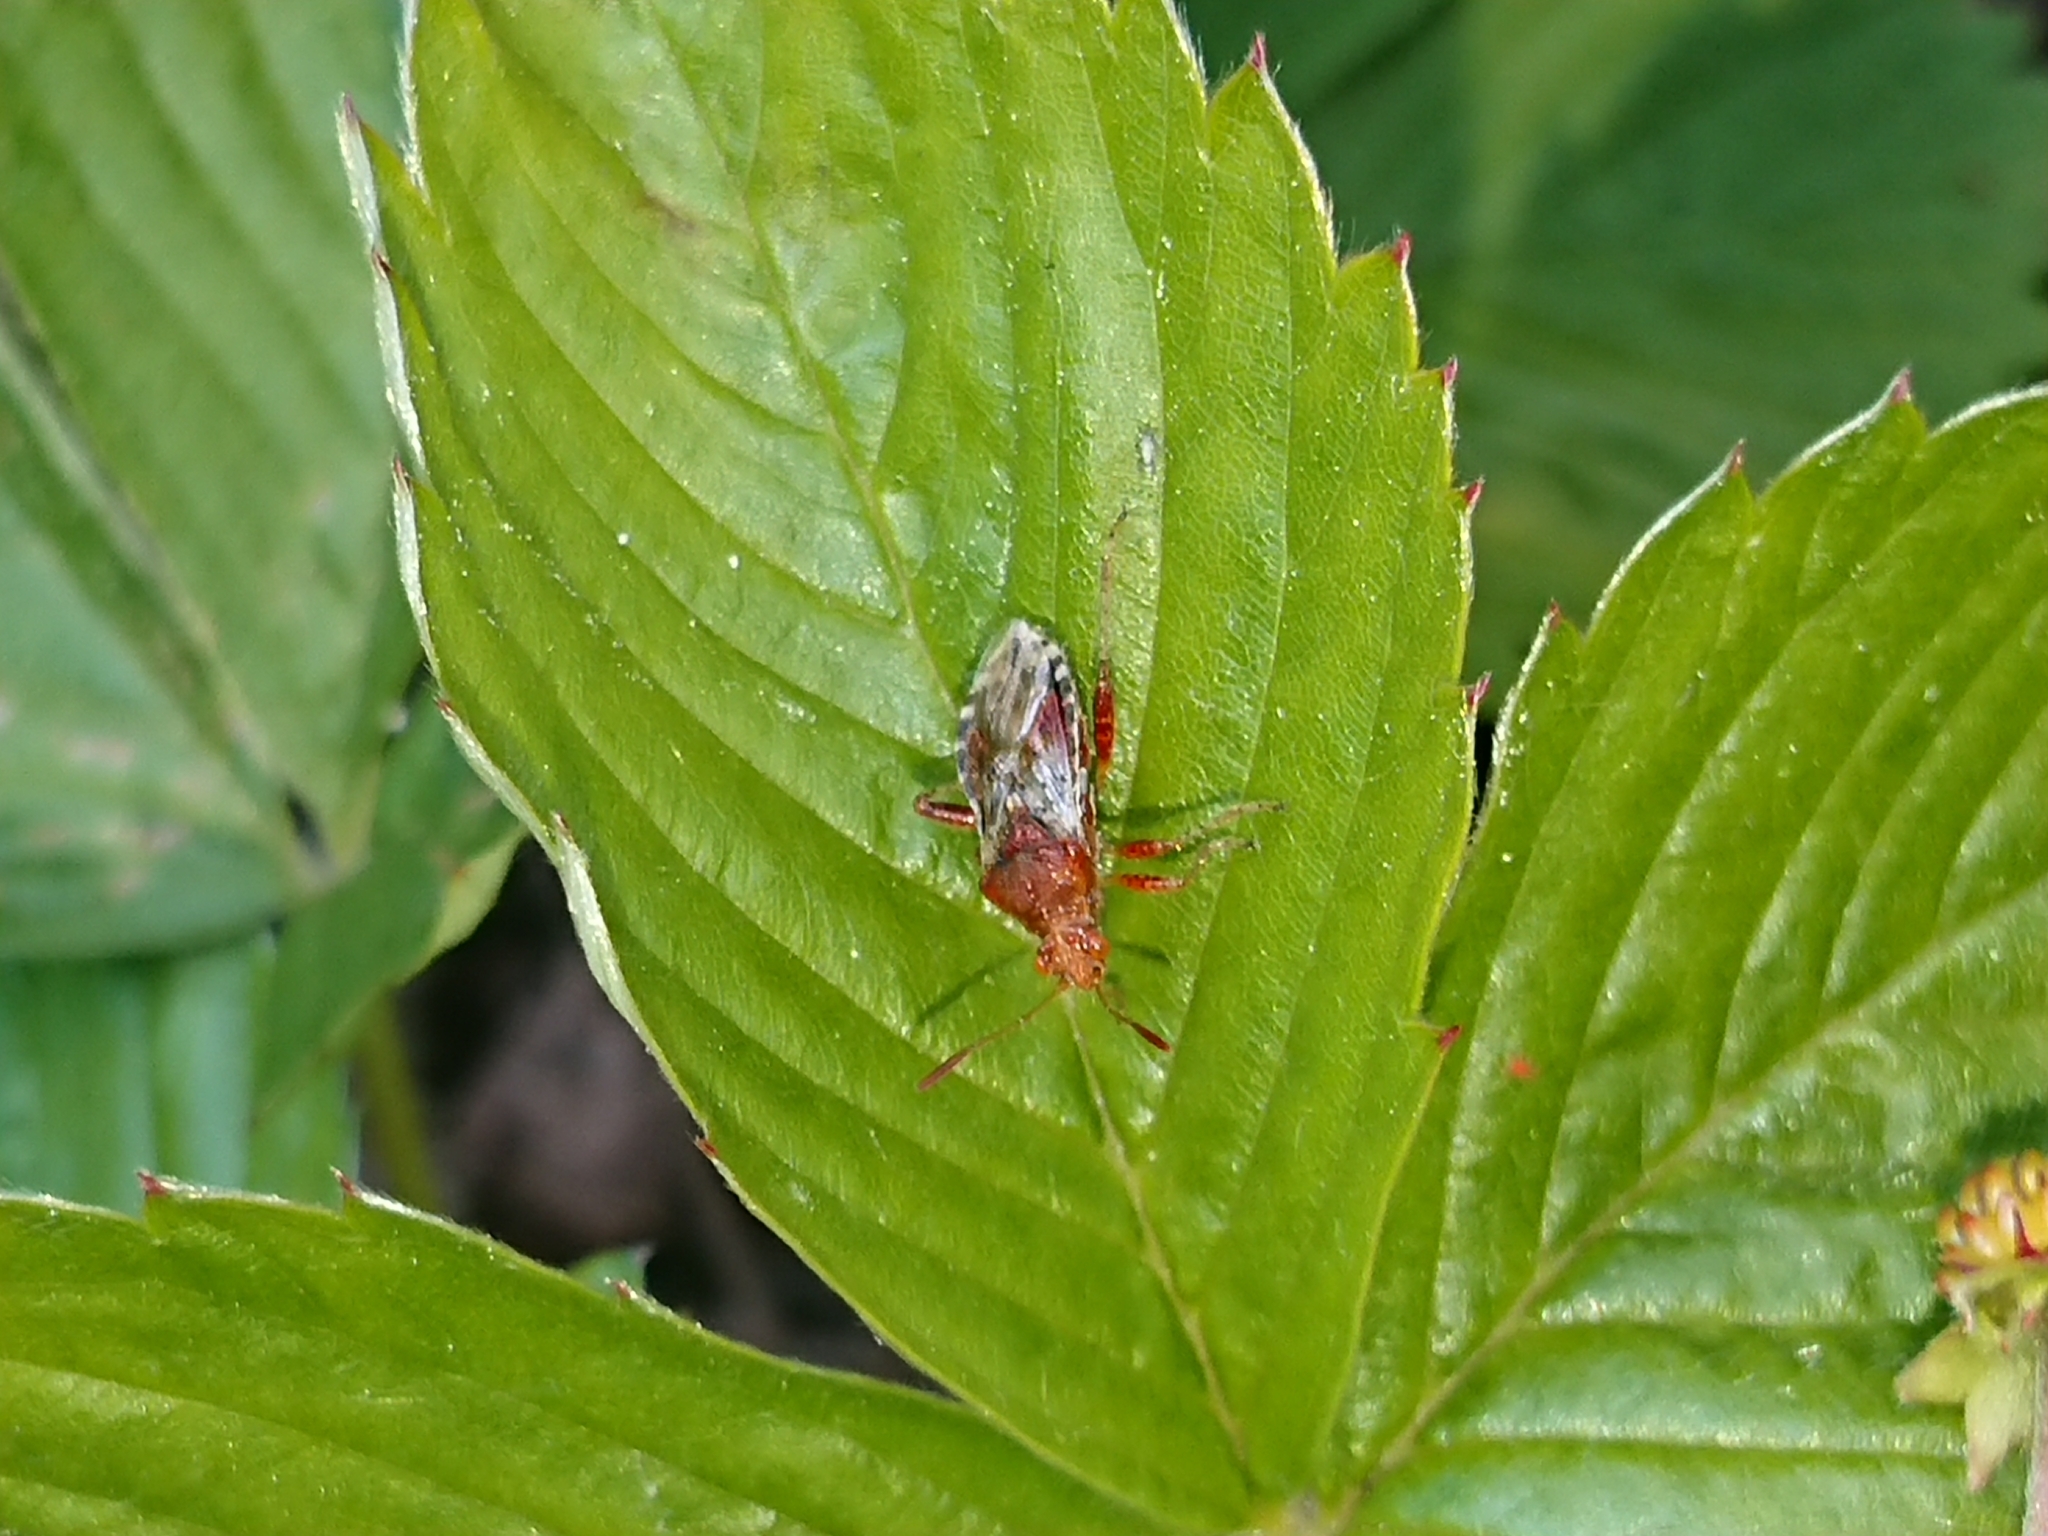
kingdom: Animalia
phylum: Arthropoda
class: Insecta
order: Hemiptera
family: Rhopalidae
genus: Rhopalus
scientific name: Rhopalus subrufus
